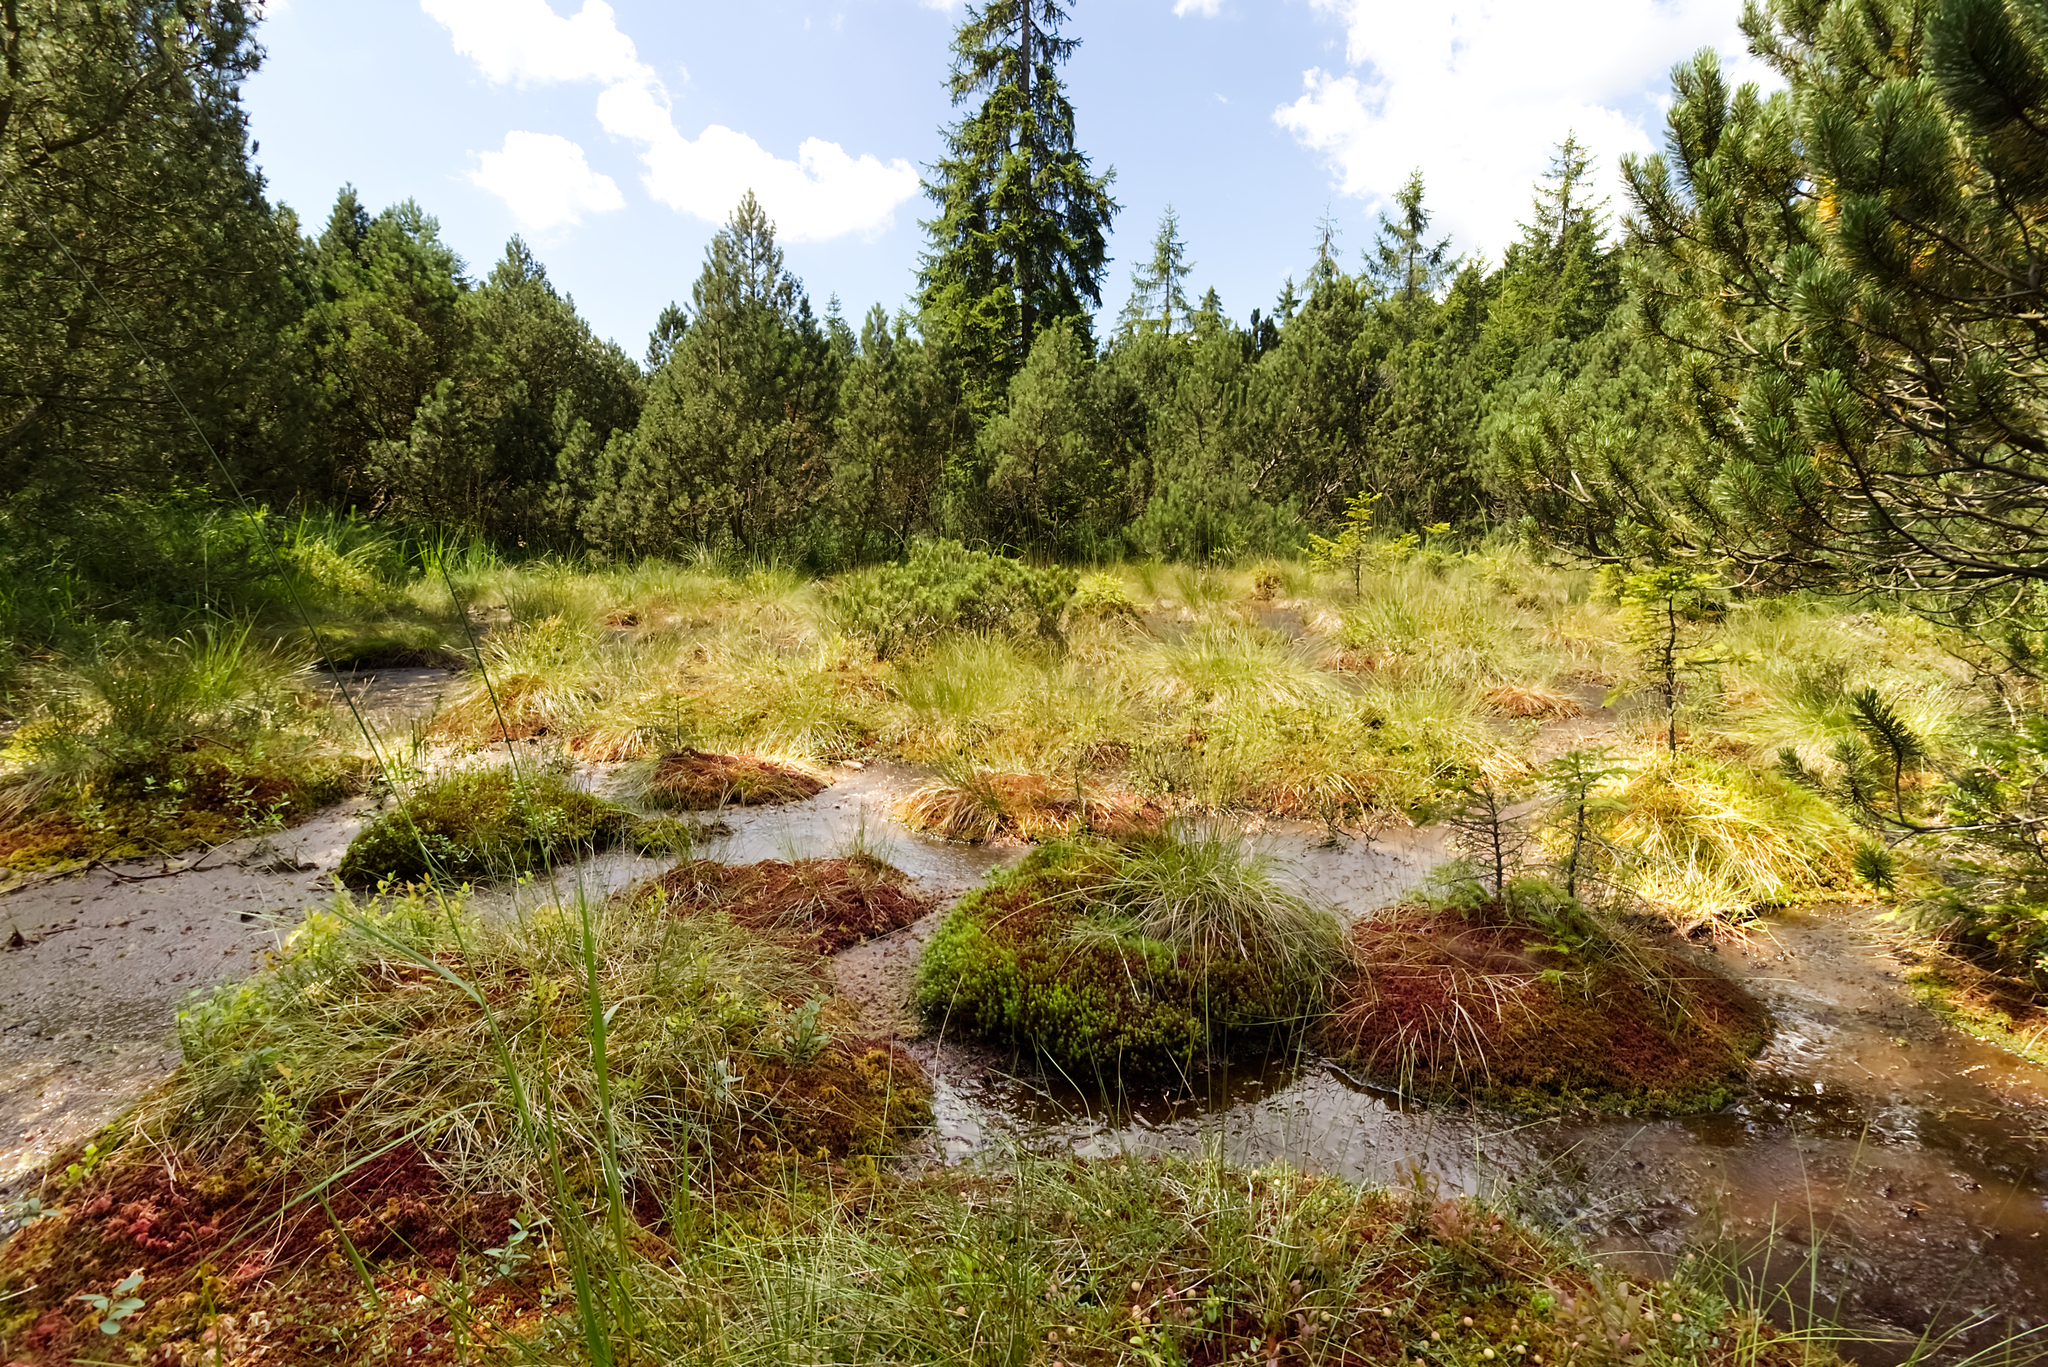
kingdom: Plantae
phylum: Tracheophyta
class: Pinopsida
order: Pinales
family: Pinaceae
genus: Pinus
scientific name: Pinus uncinata
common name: Mountain pine
